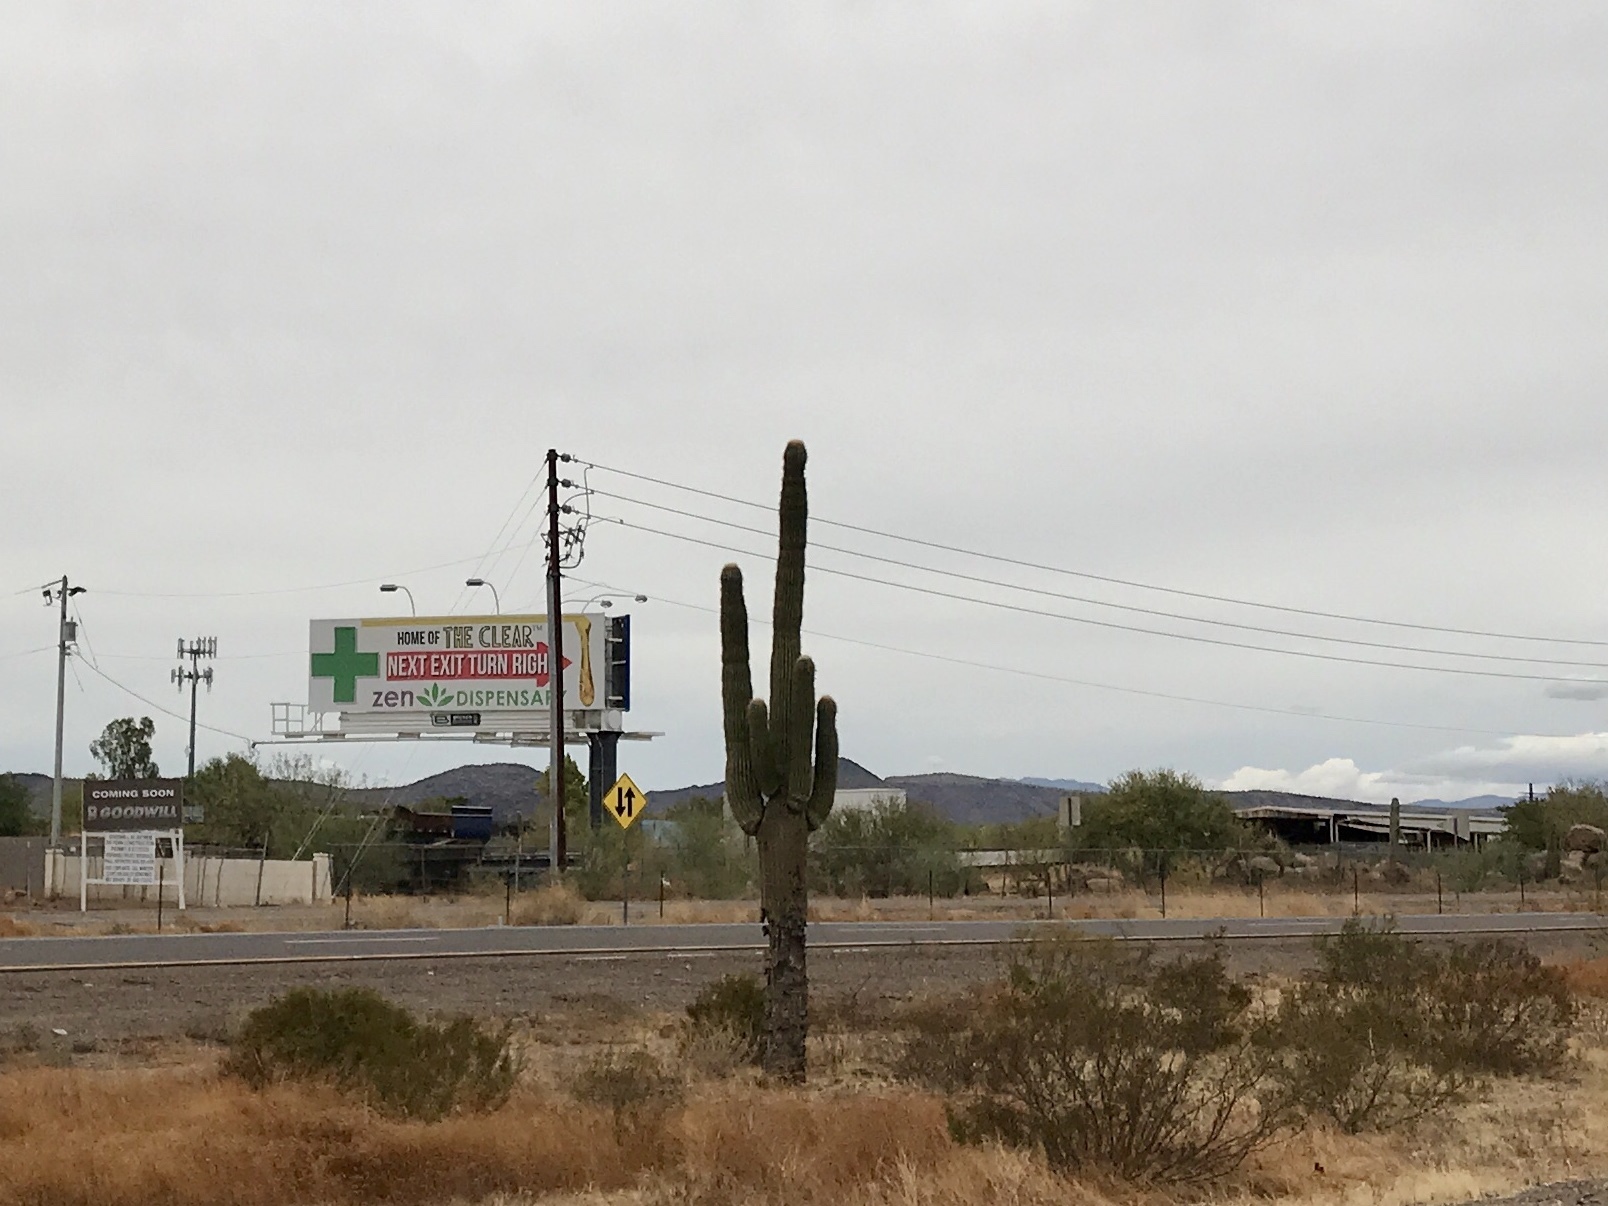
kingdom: Plantae
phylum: Tracheophyta
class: Magnoliopsida
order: Caryophyllales
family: Cactaceae
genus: Carnegiea
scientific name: Carnegiea gigantea
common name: Saguaro
